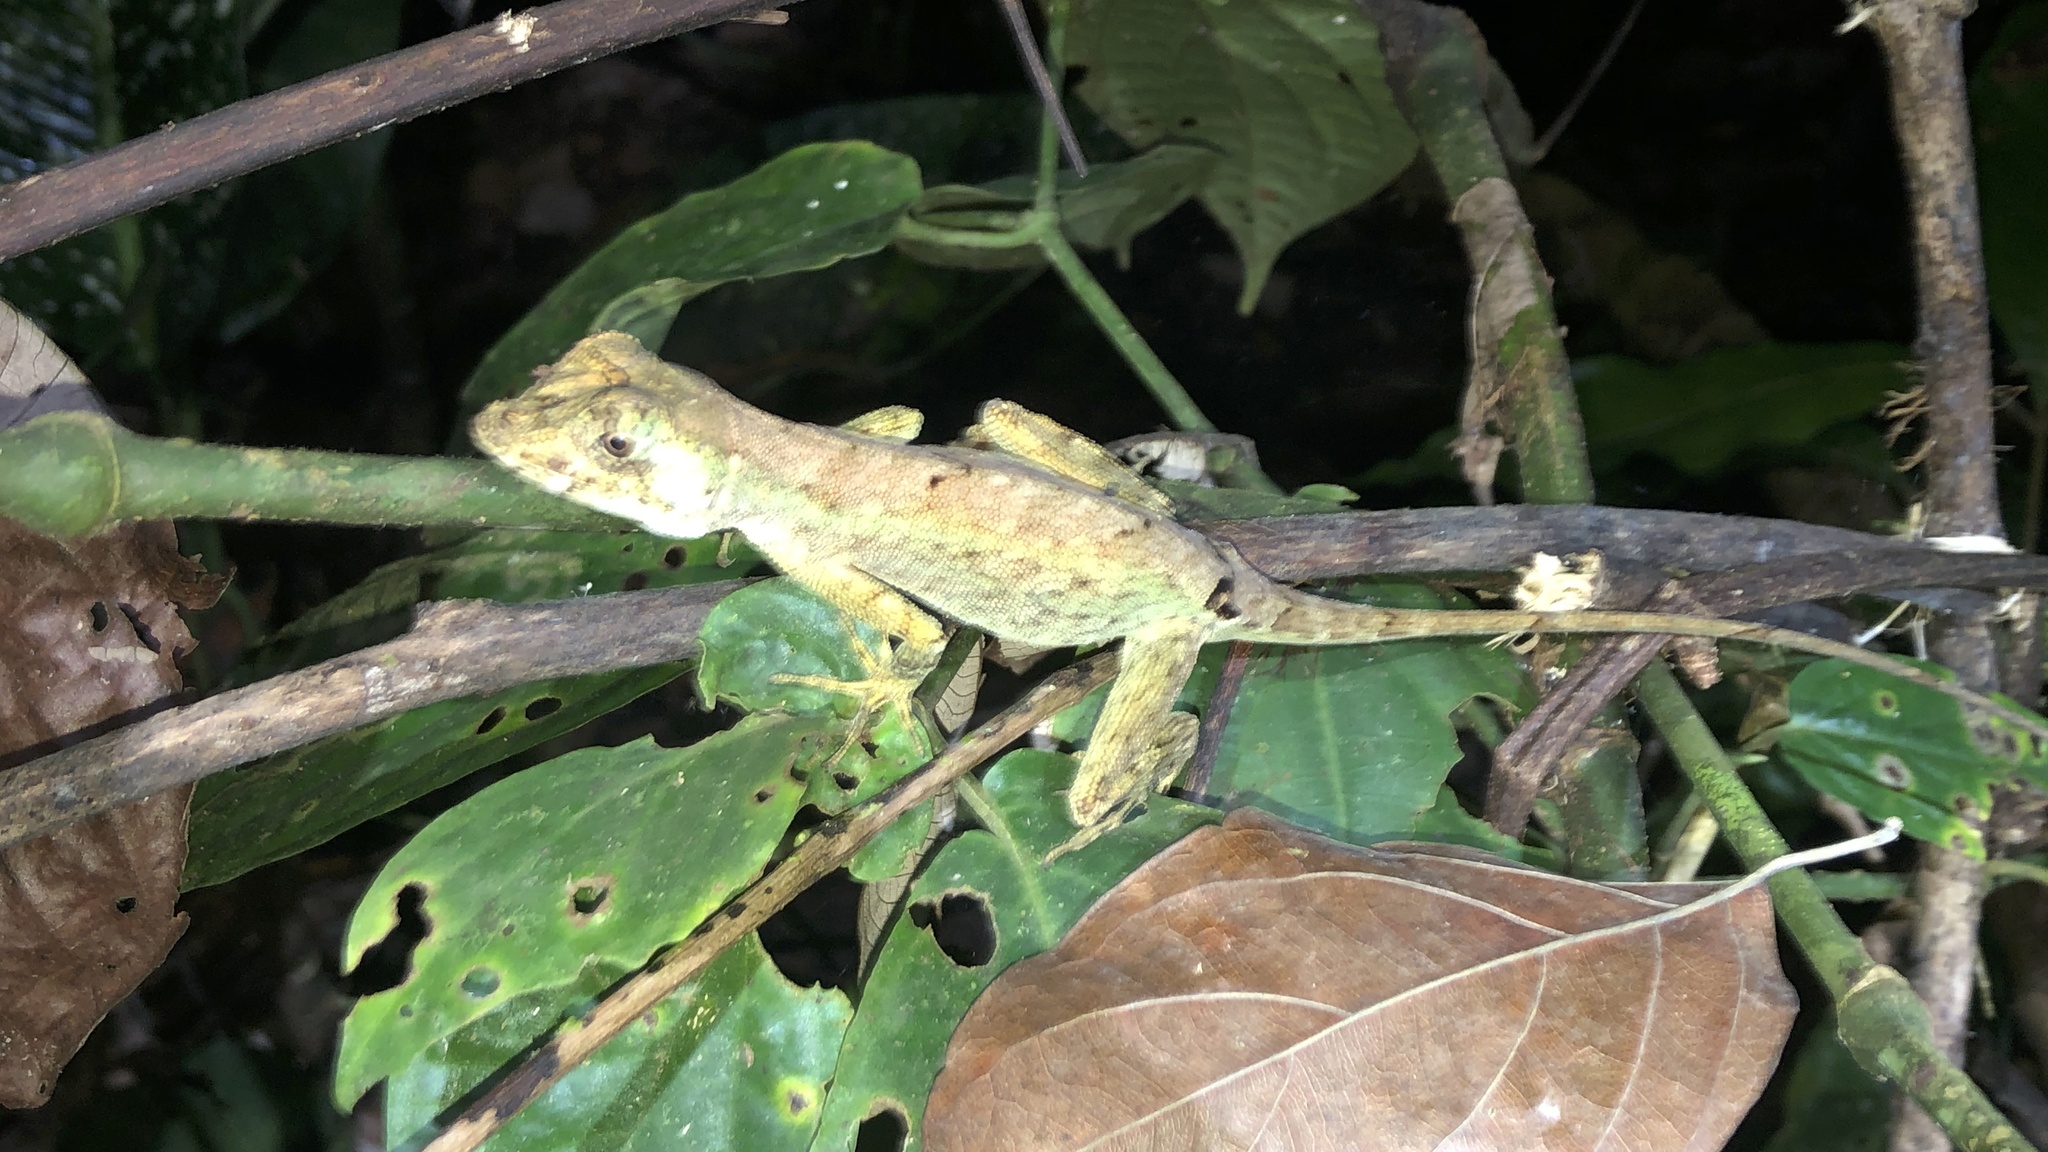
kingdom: Animalia
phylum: Chordata
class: Squamata
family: Dactyloidae
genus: Anolis
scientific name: Anolis capito
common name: Bighead anole
